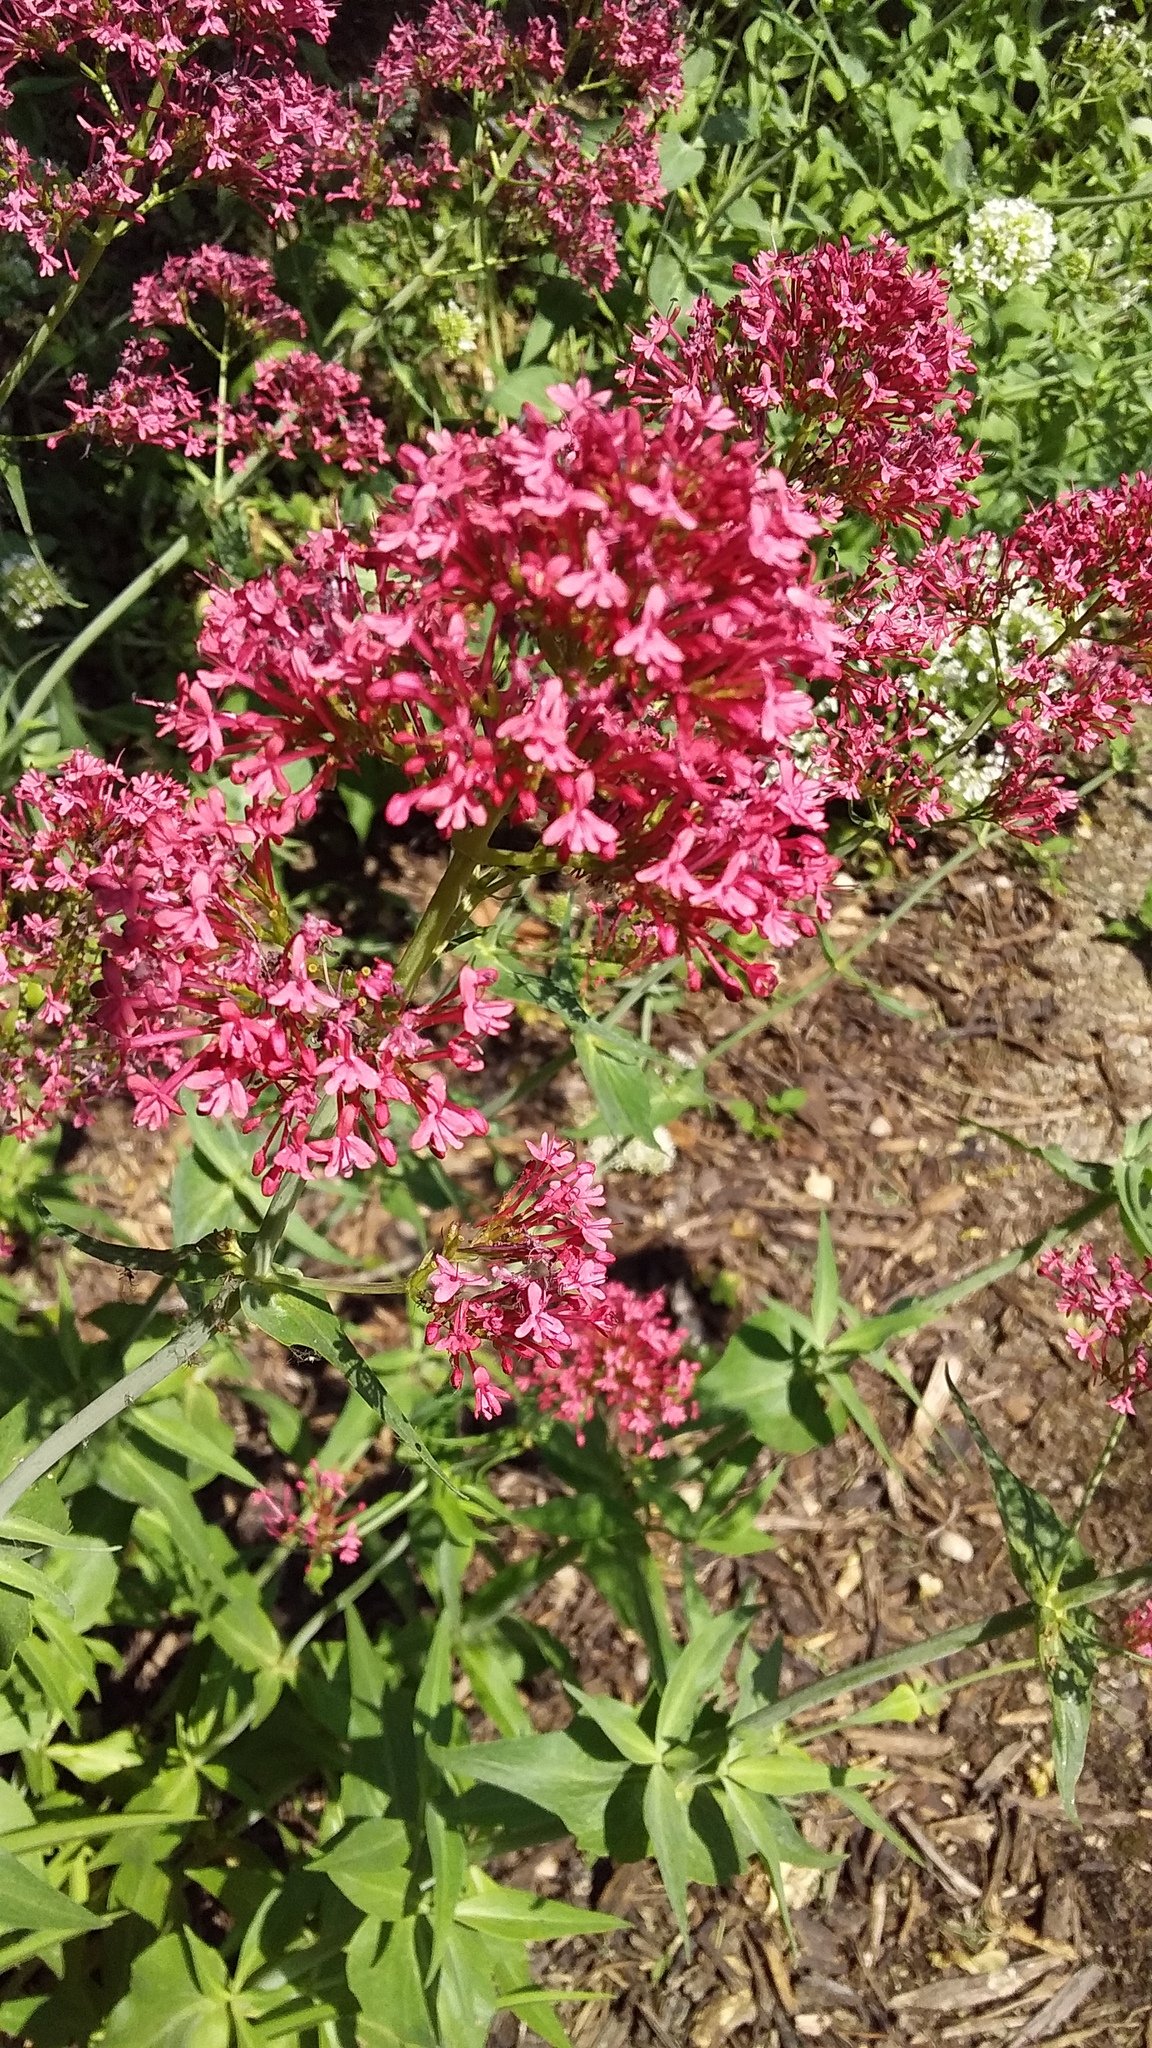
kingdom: Plantae
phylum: Tracheophyta
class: Magnoliopsida
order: Dipsacales
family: Caprifoliaceae
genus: Centranthus
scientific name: Centranthus ruber
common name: Red valerian
